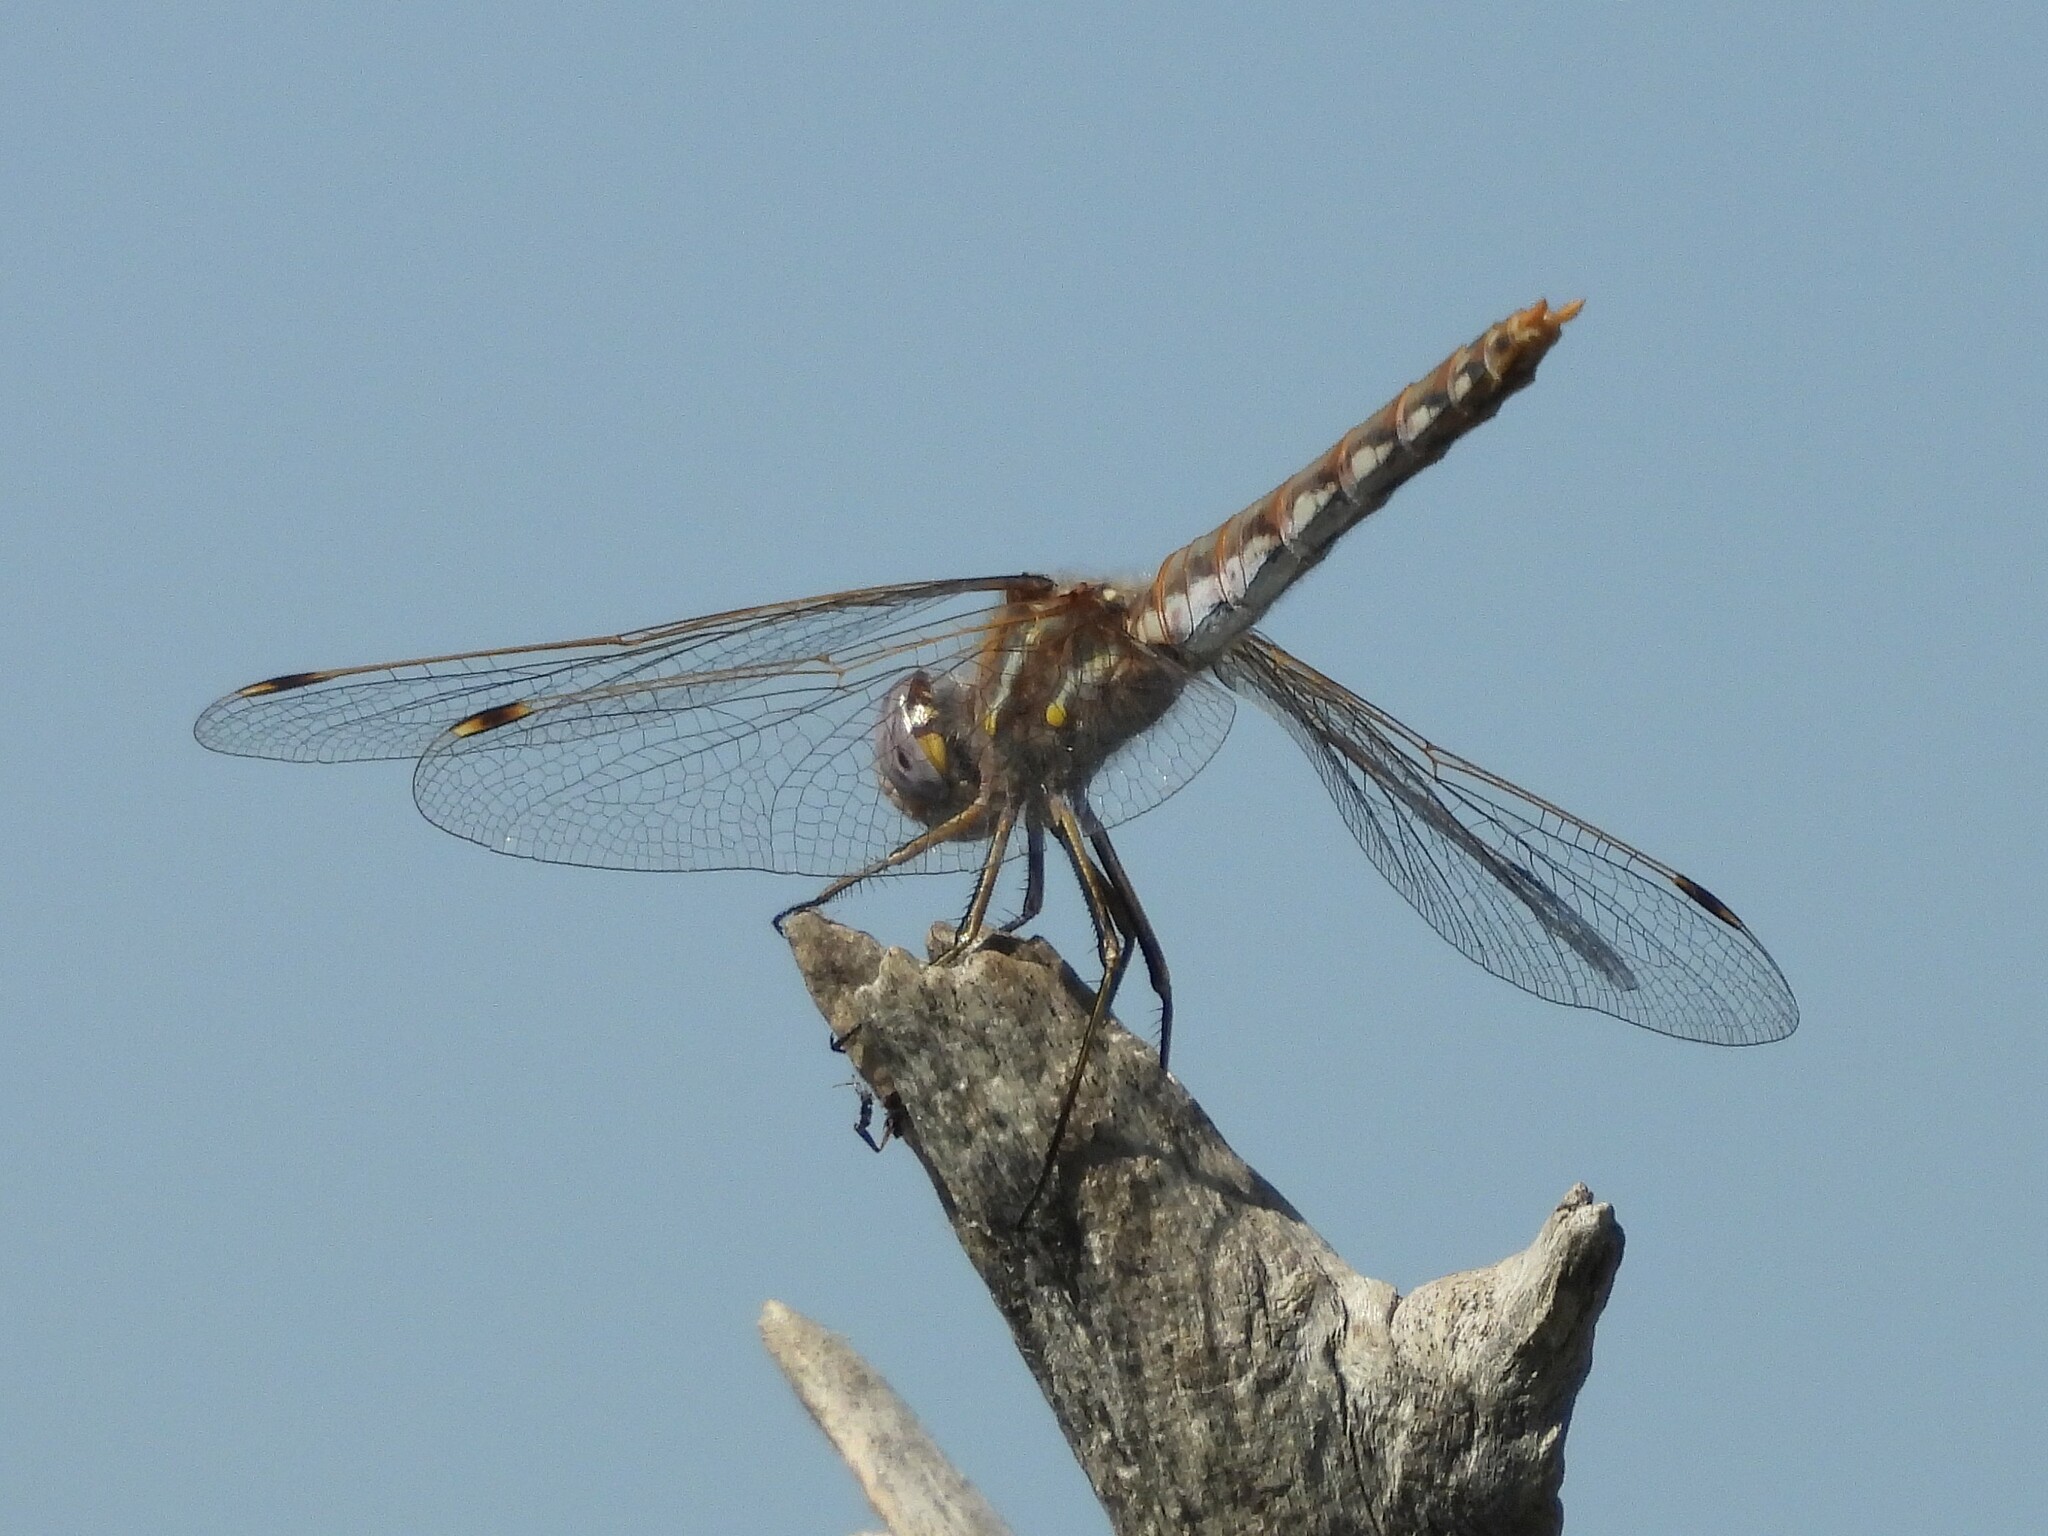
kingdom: Animalia
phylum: Arthropoda
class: Insecta
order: Odonata
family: Libellulidae
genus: Sympetrum
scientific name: Sympetrum corruptum
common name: Variegated meadowhawk
